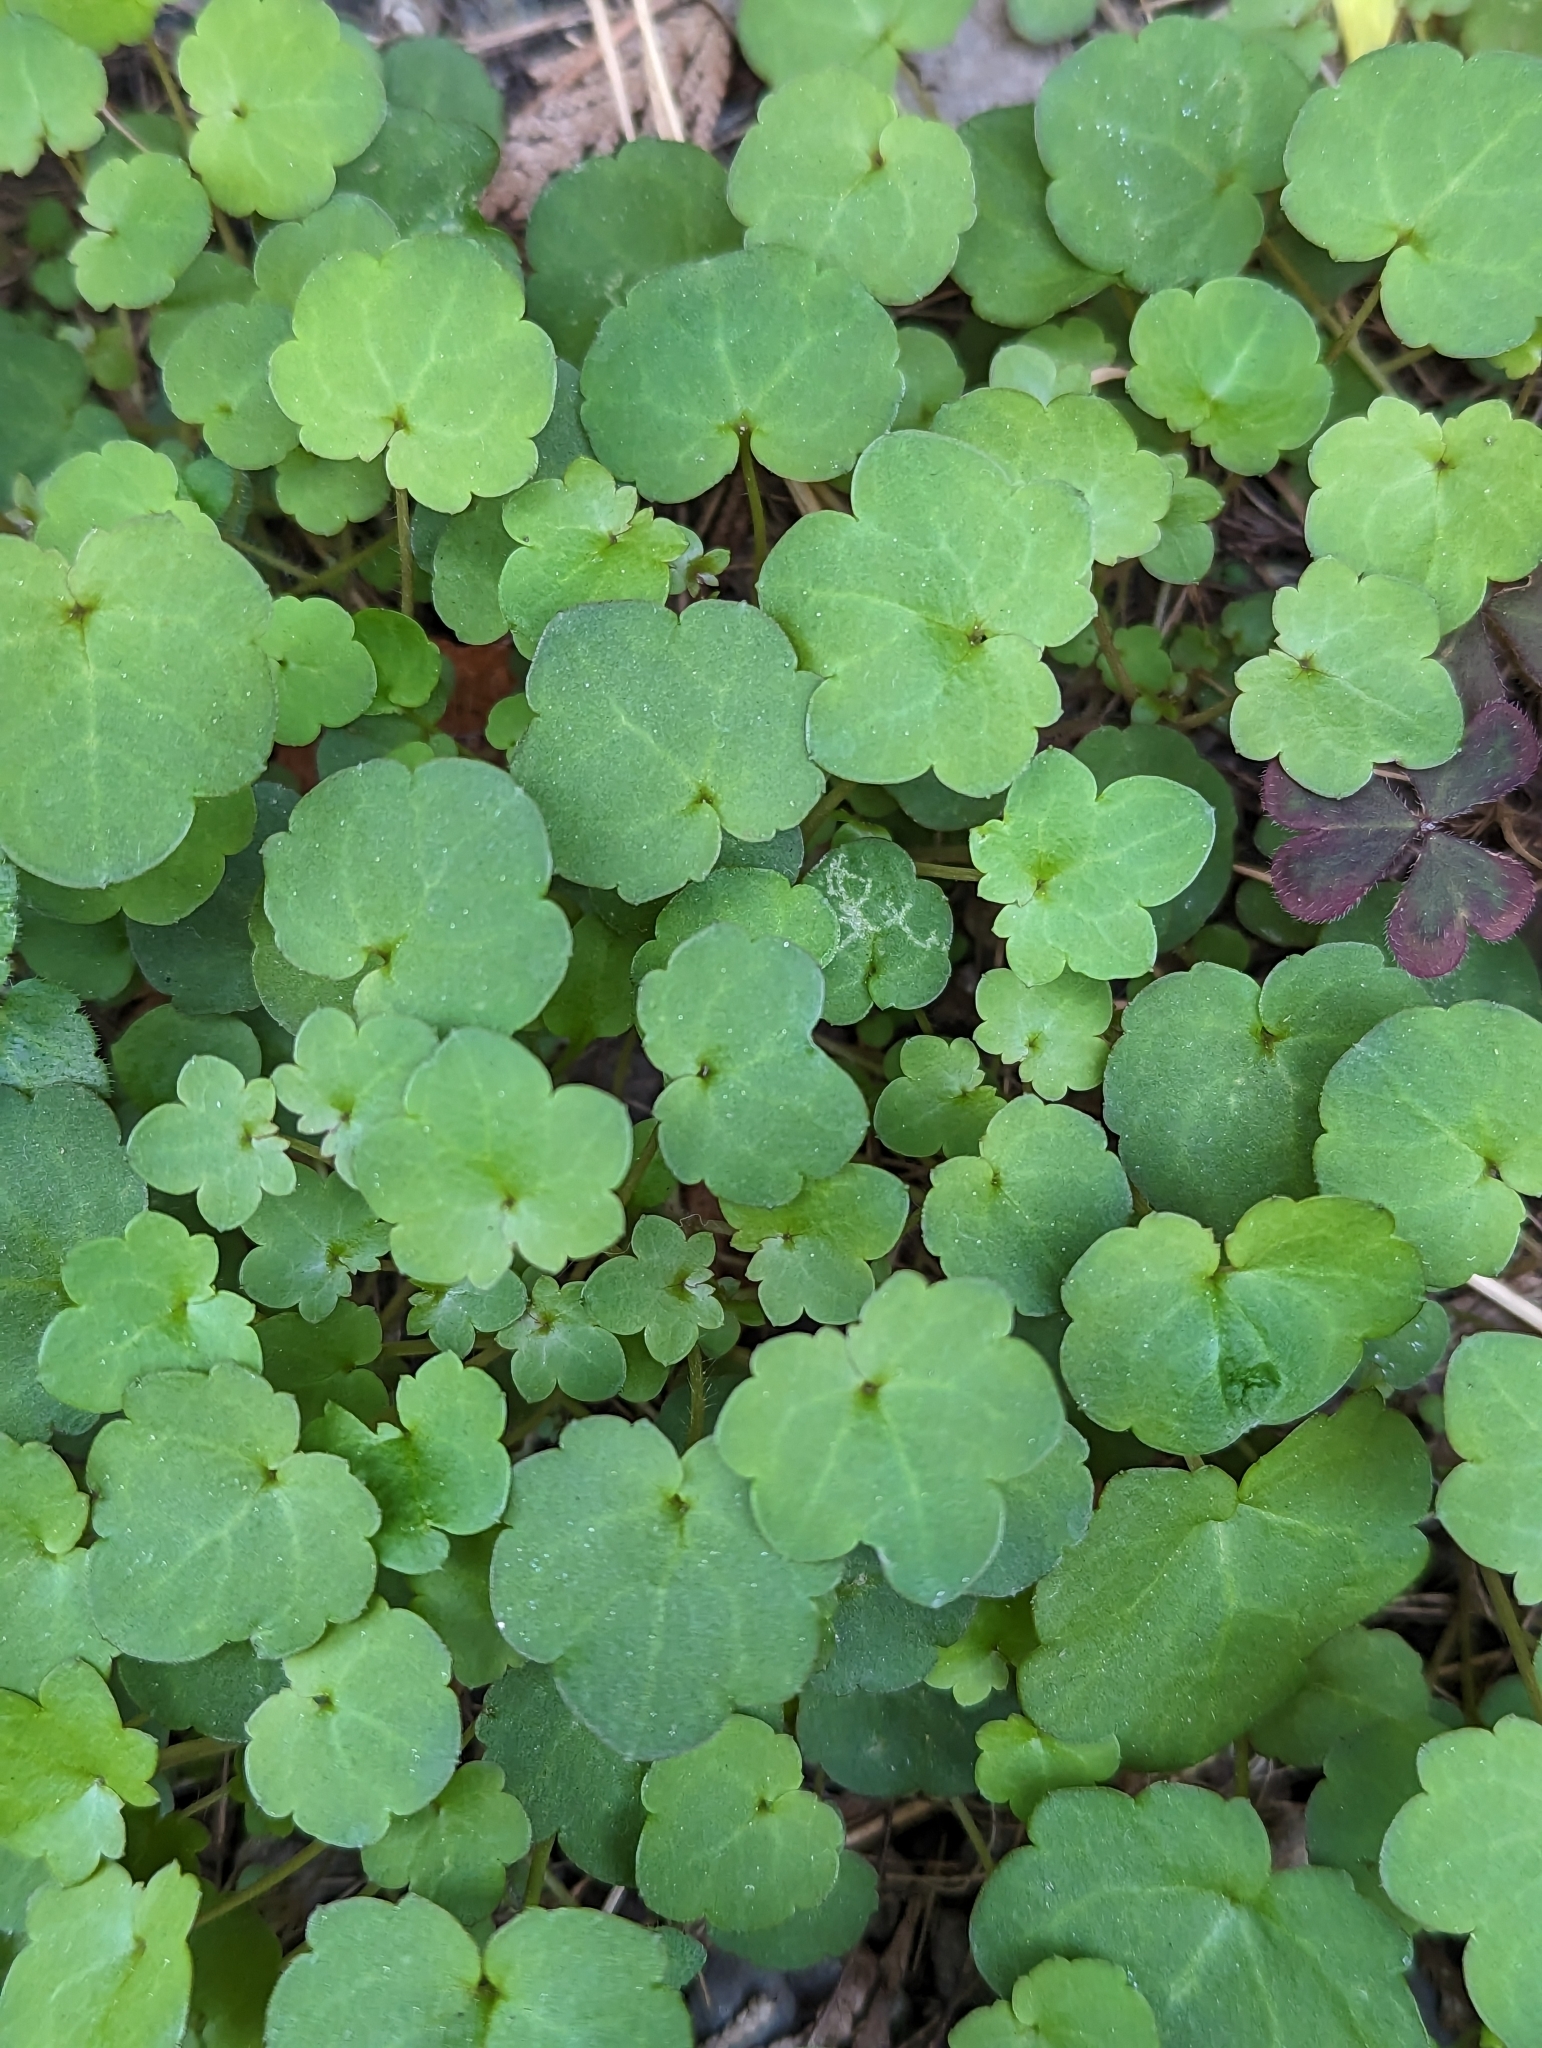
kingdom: Plantae
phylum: Tracheophyta
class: Magnoliopsida
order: Lamiales
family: Plantaginaceae
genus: Cymbalaria
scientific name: Cymbalaria muralis
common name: Ivy-leaved toadflax
